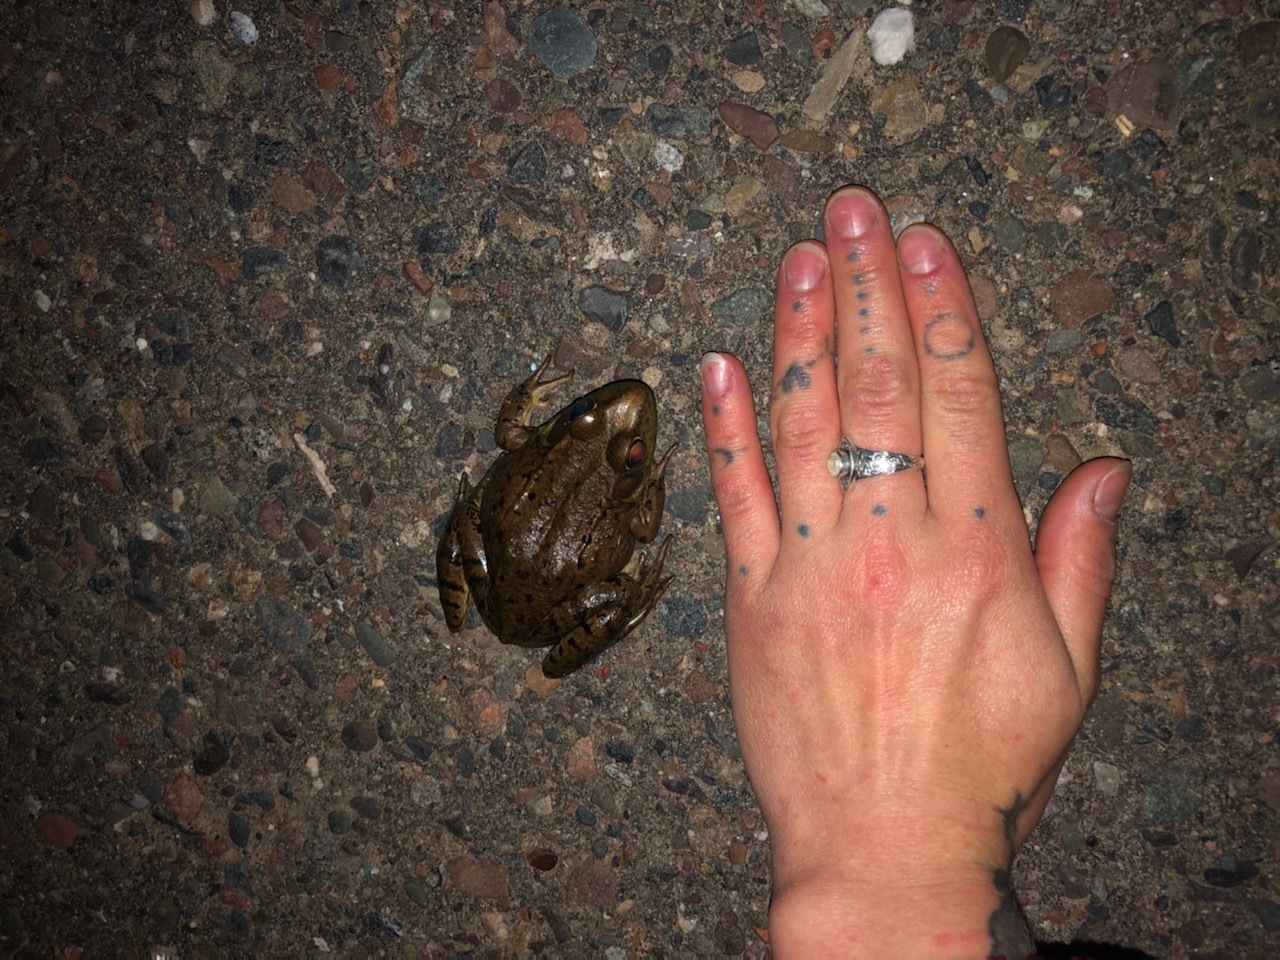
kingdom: Animalia
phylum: Chordata
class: Amphibia
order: Anura
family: Ranidae
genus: Lithobates
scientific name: Lithobates clamitans
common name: Green frog
